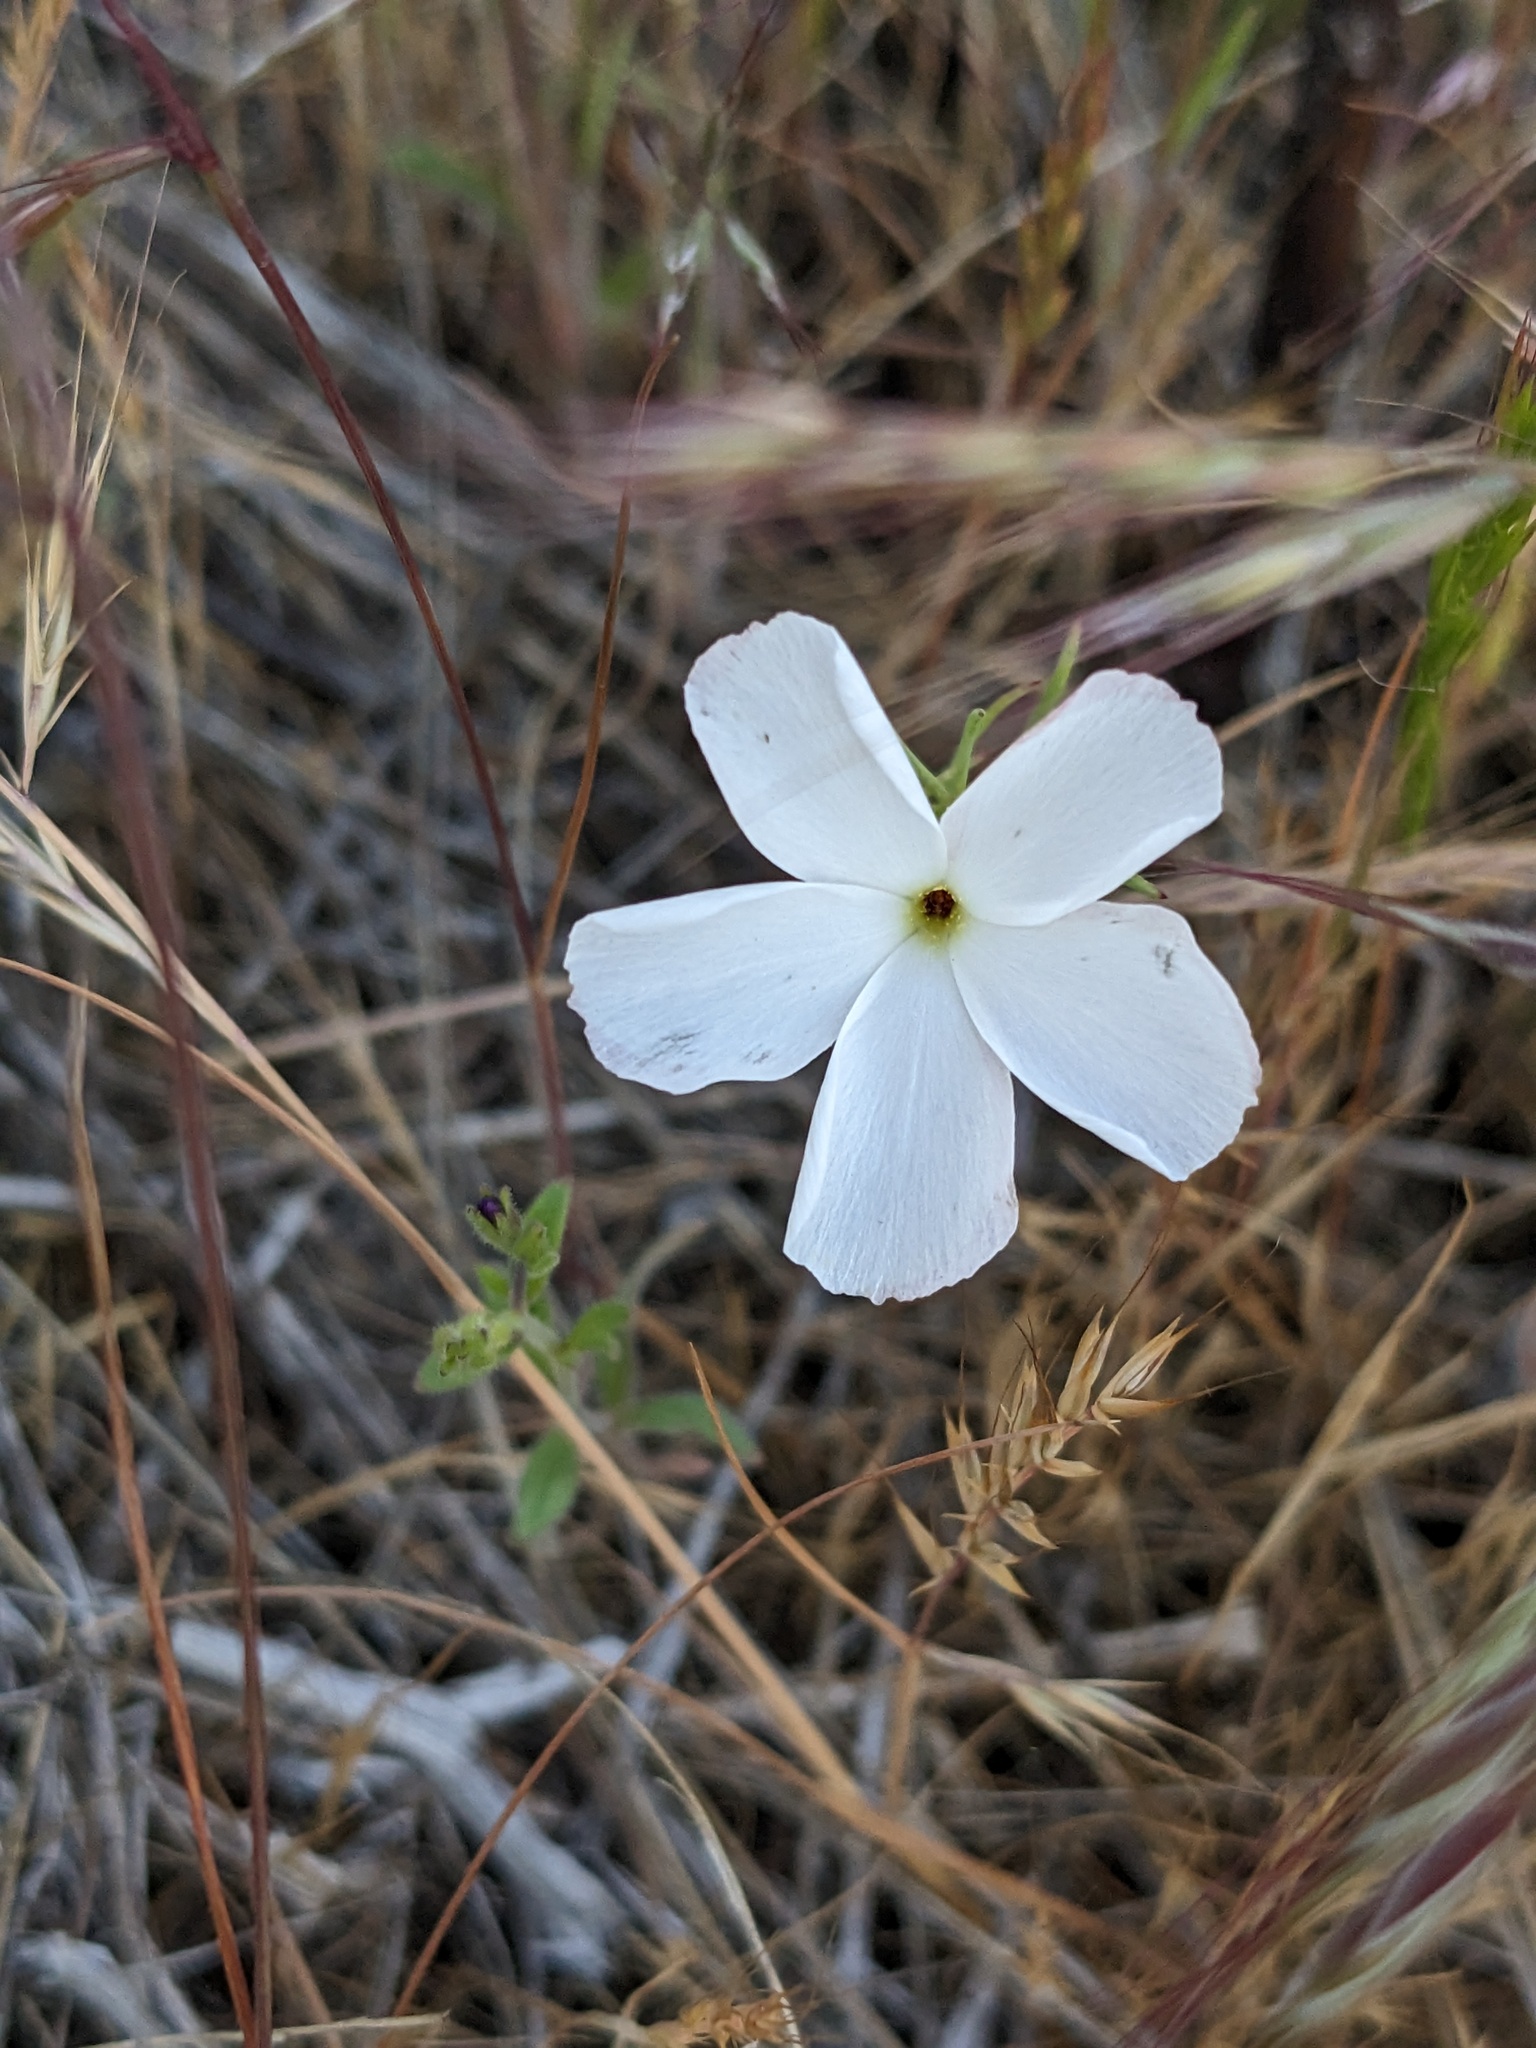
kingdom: Plantae
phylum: Tracheophyta
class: Magnoliopsida
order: Ericales
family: Polemoniaceae
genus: Linanthus
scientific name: Linanthus dichotomus
